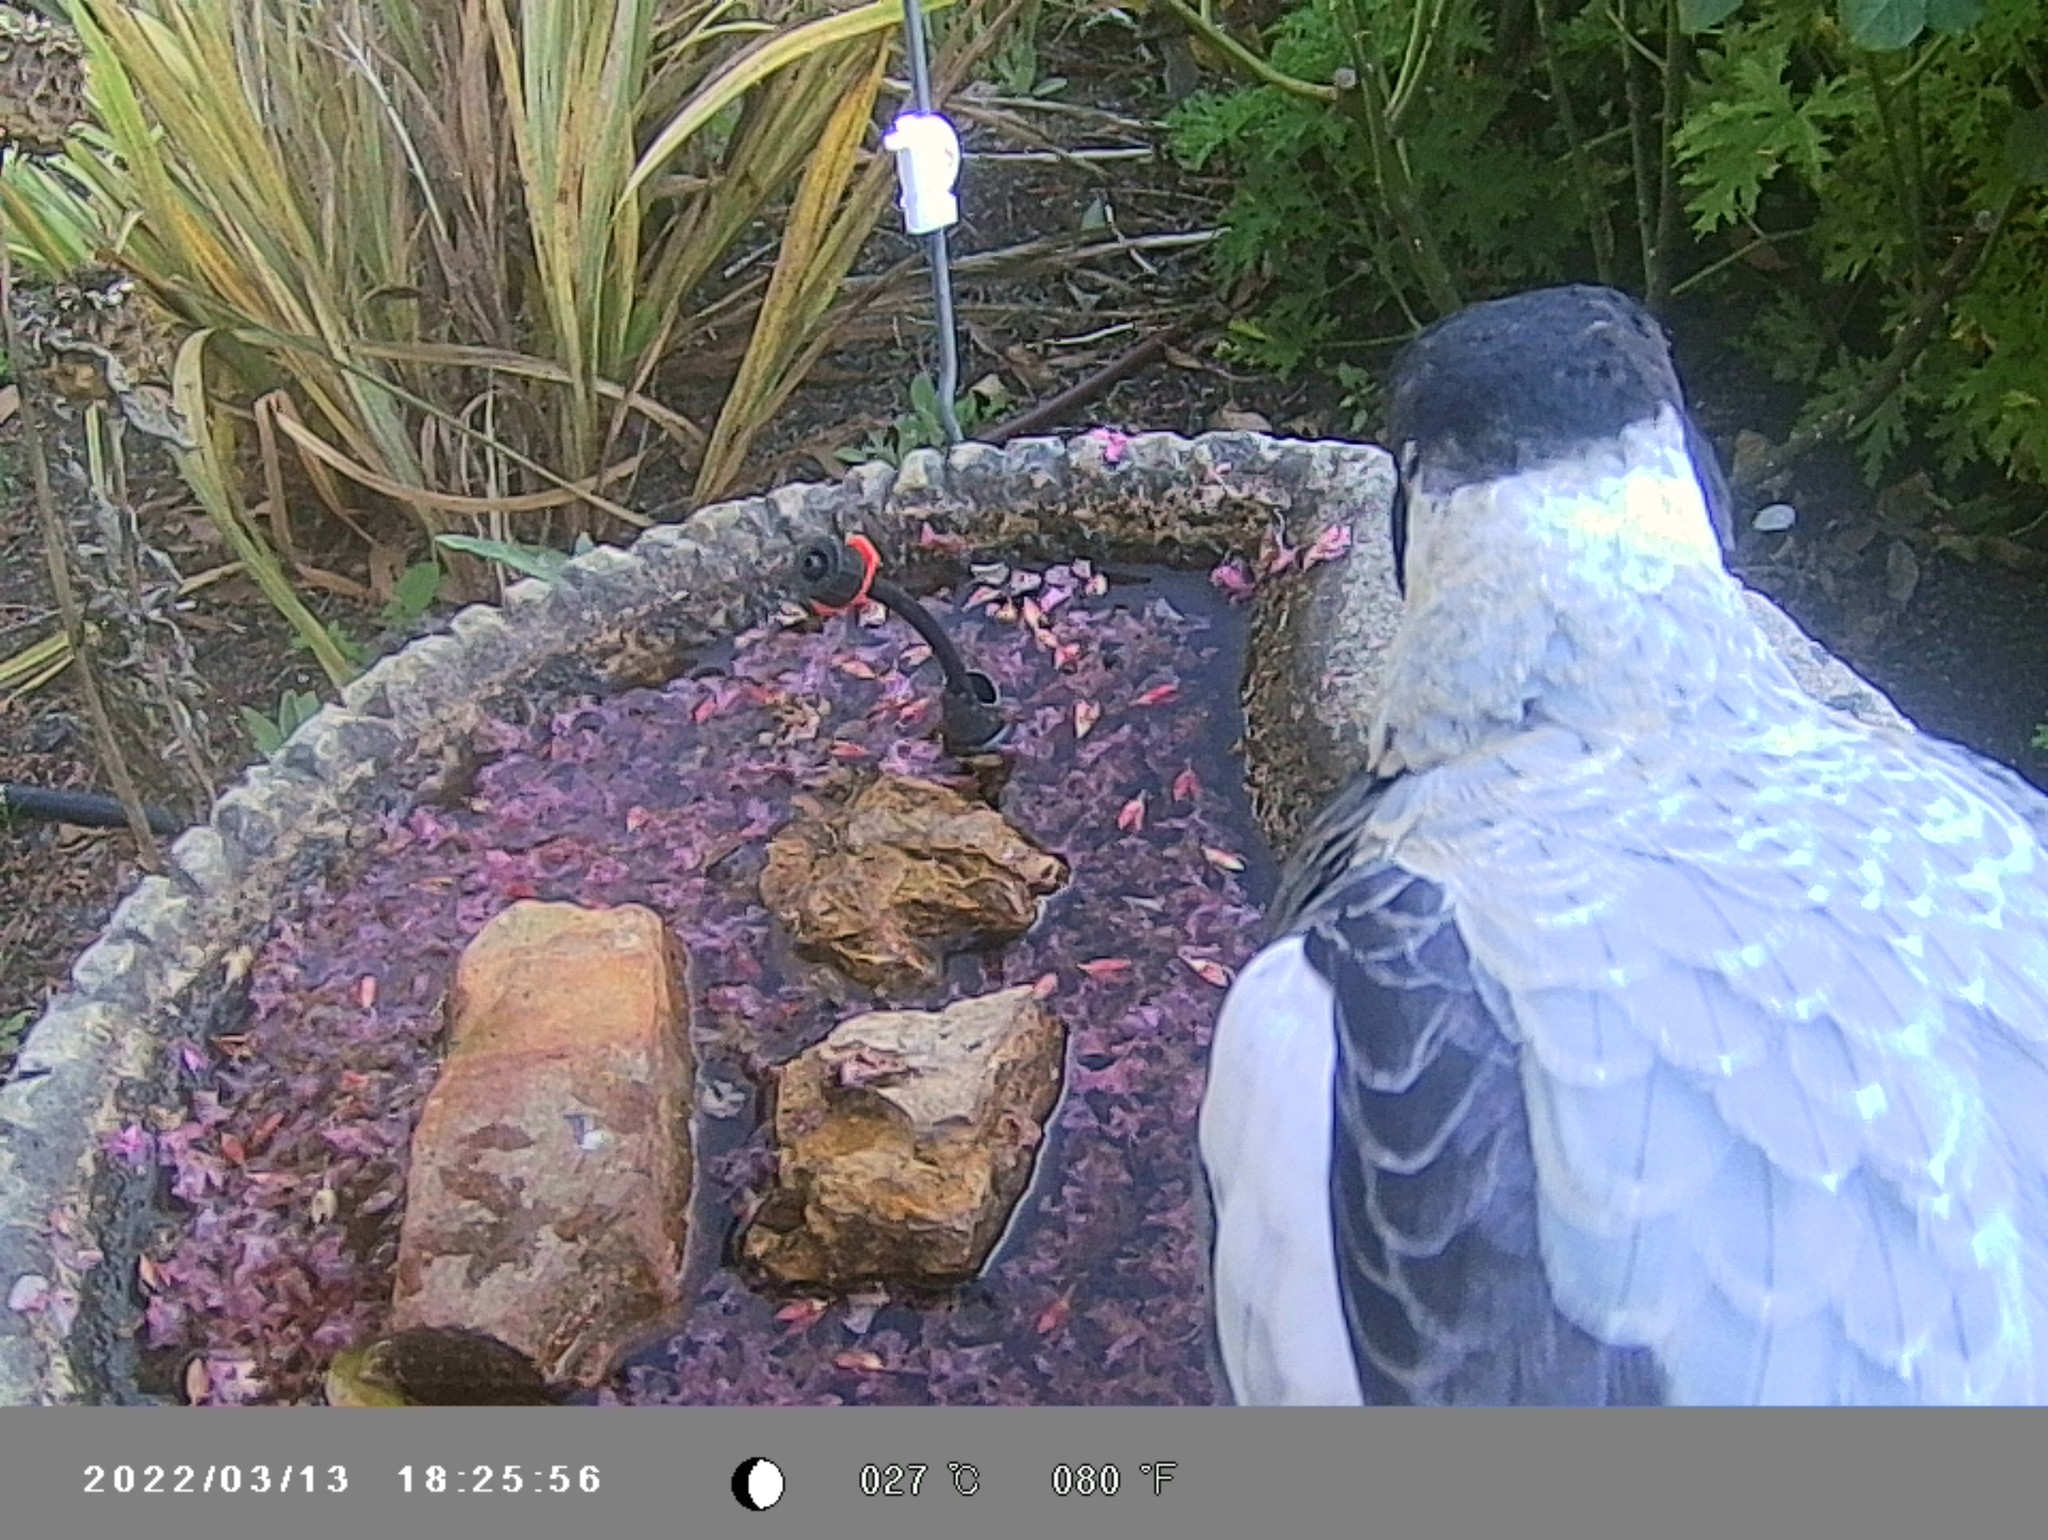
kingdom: Animalia
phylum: Chordata
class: Aves
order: Passeriformes
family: Cracticidae
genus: Gymnorhina
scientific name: Gymnorhina tibicen
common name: Australian magpie
